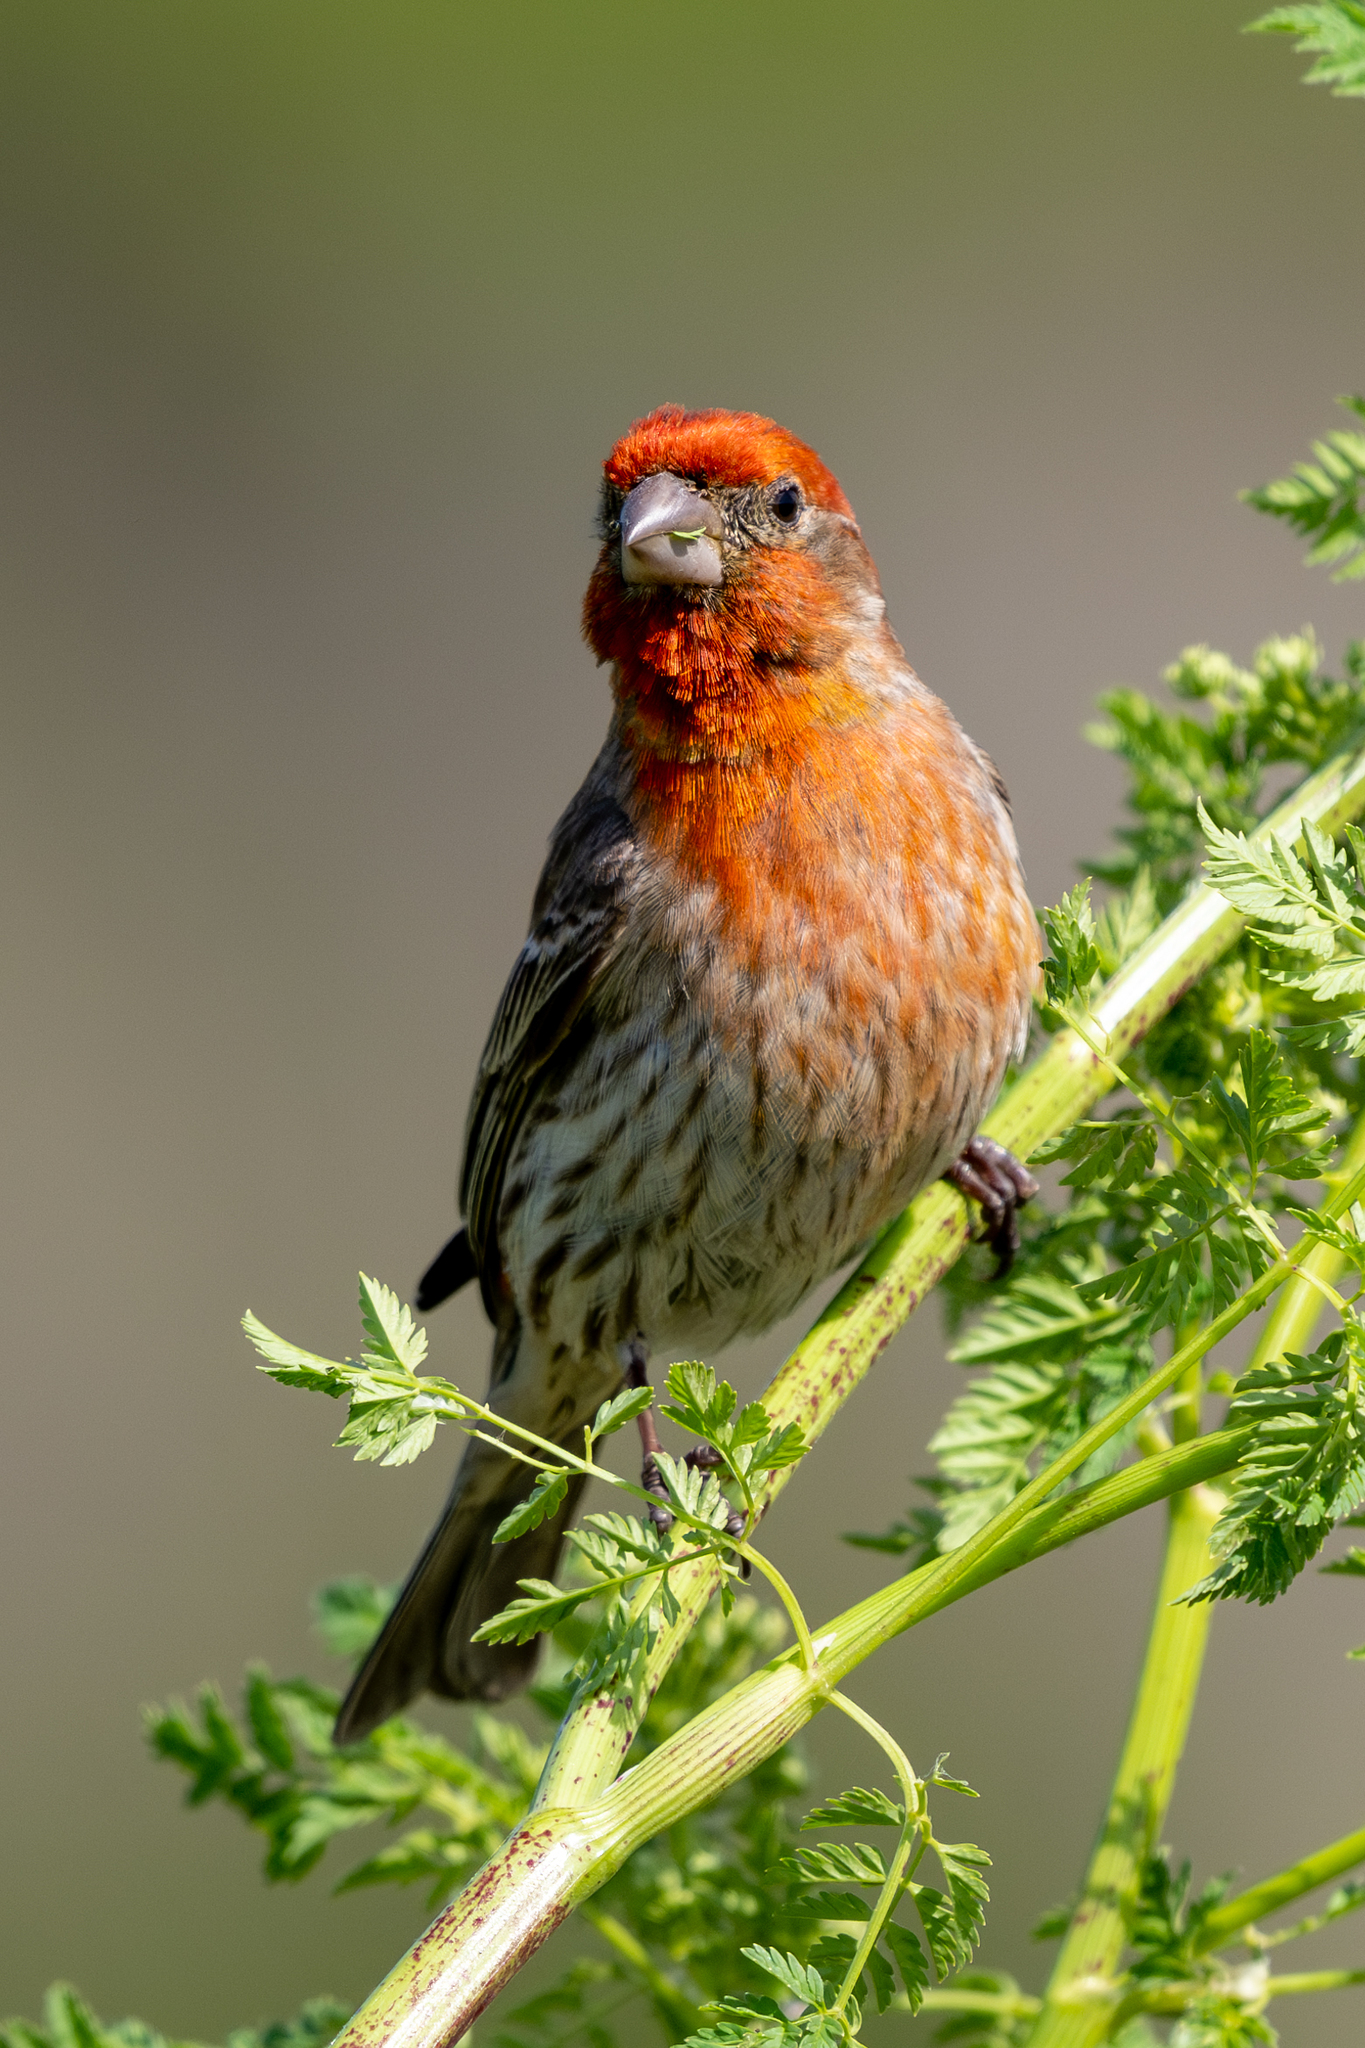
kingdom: Animalia
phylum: Chordata
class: Aves
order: Passeriformes
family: Fringillidae
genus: Haemorhous
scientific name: Haemorhous mexicanus
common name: House finch
